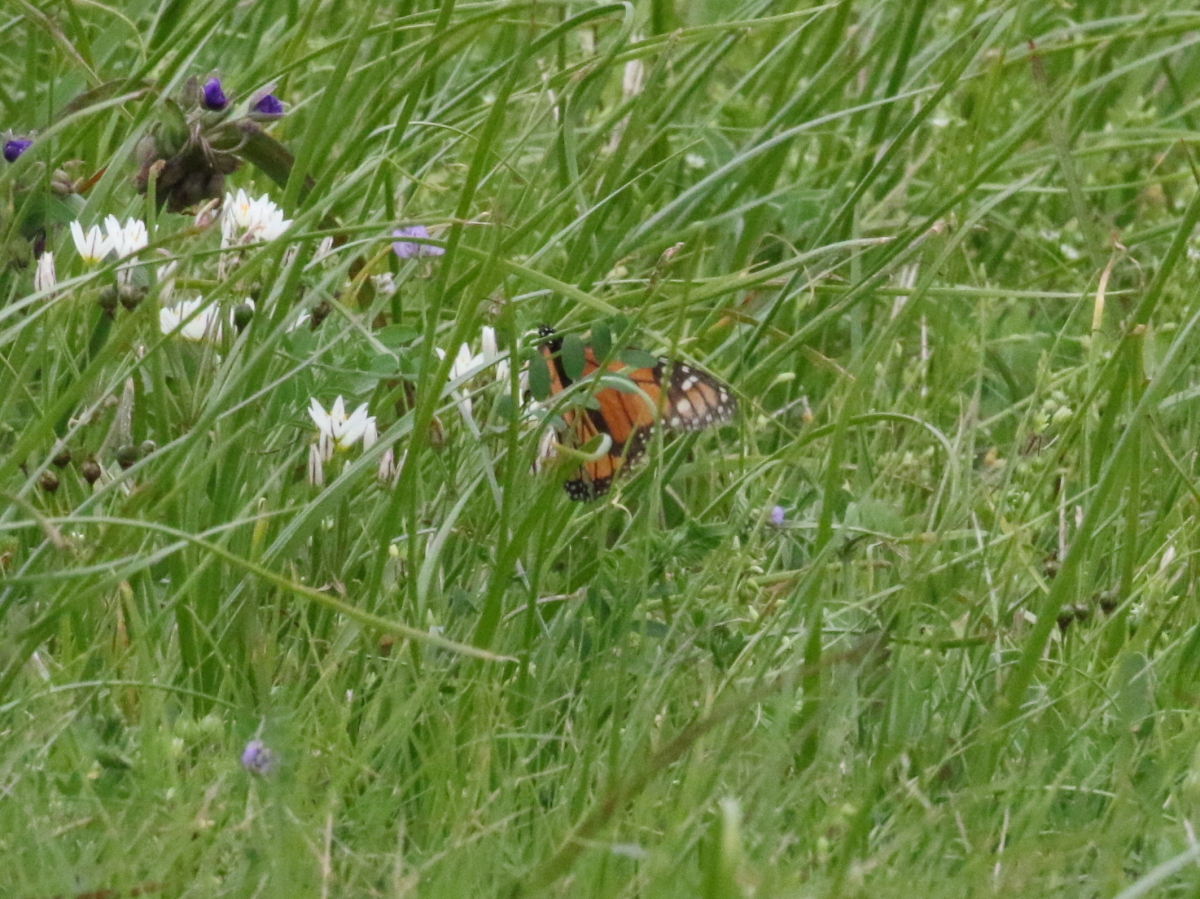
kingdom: Animalia
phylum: Arthropoda
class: Insecta
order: Lepidoptera
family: Nymphalidae
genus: Danaus
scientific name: Danaus plexippus
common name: Monarch
